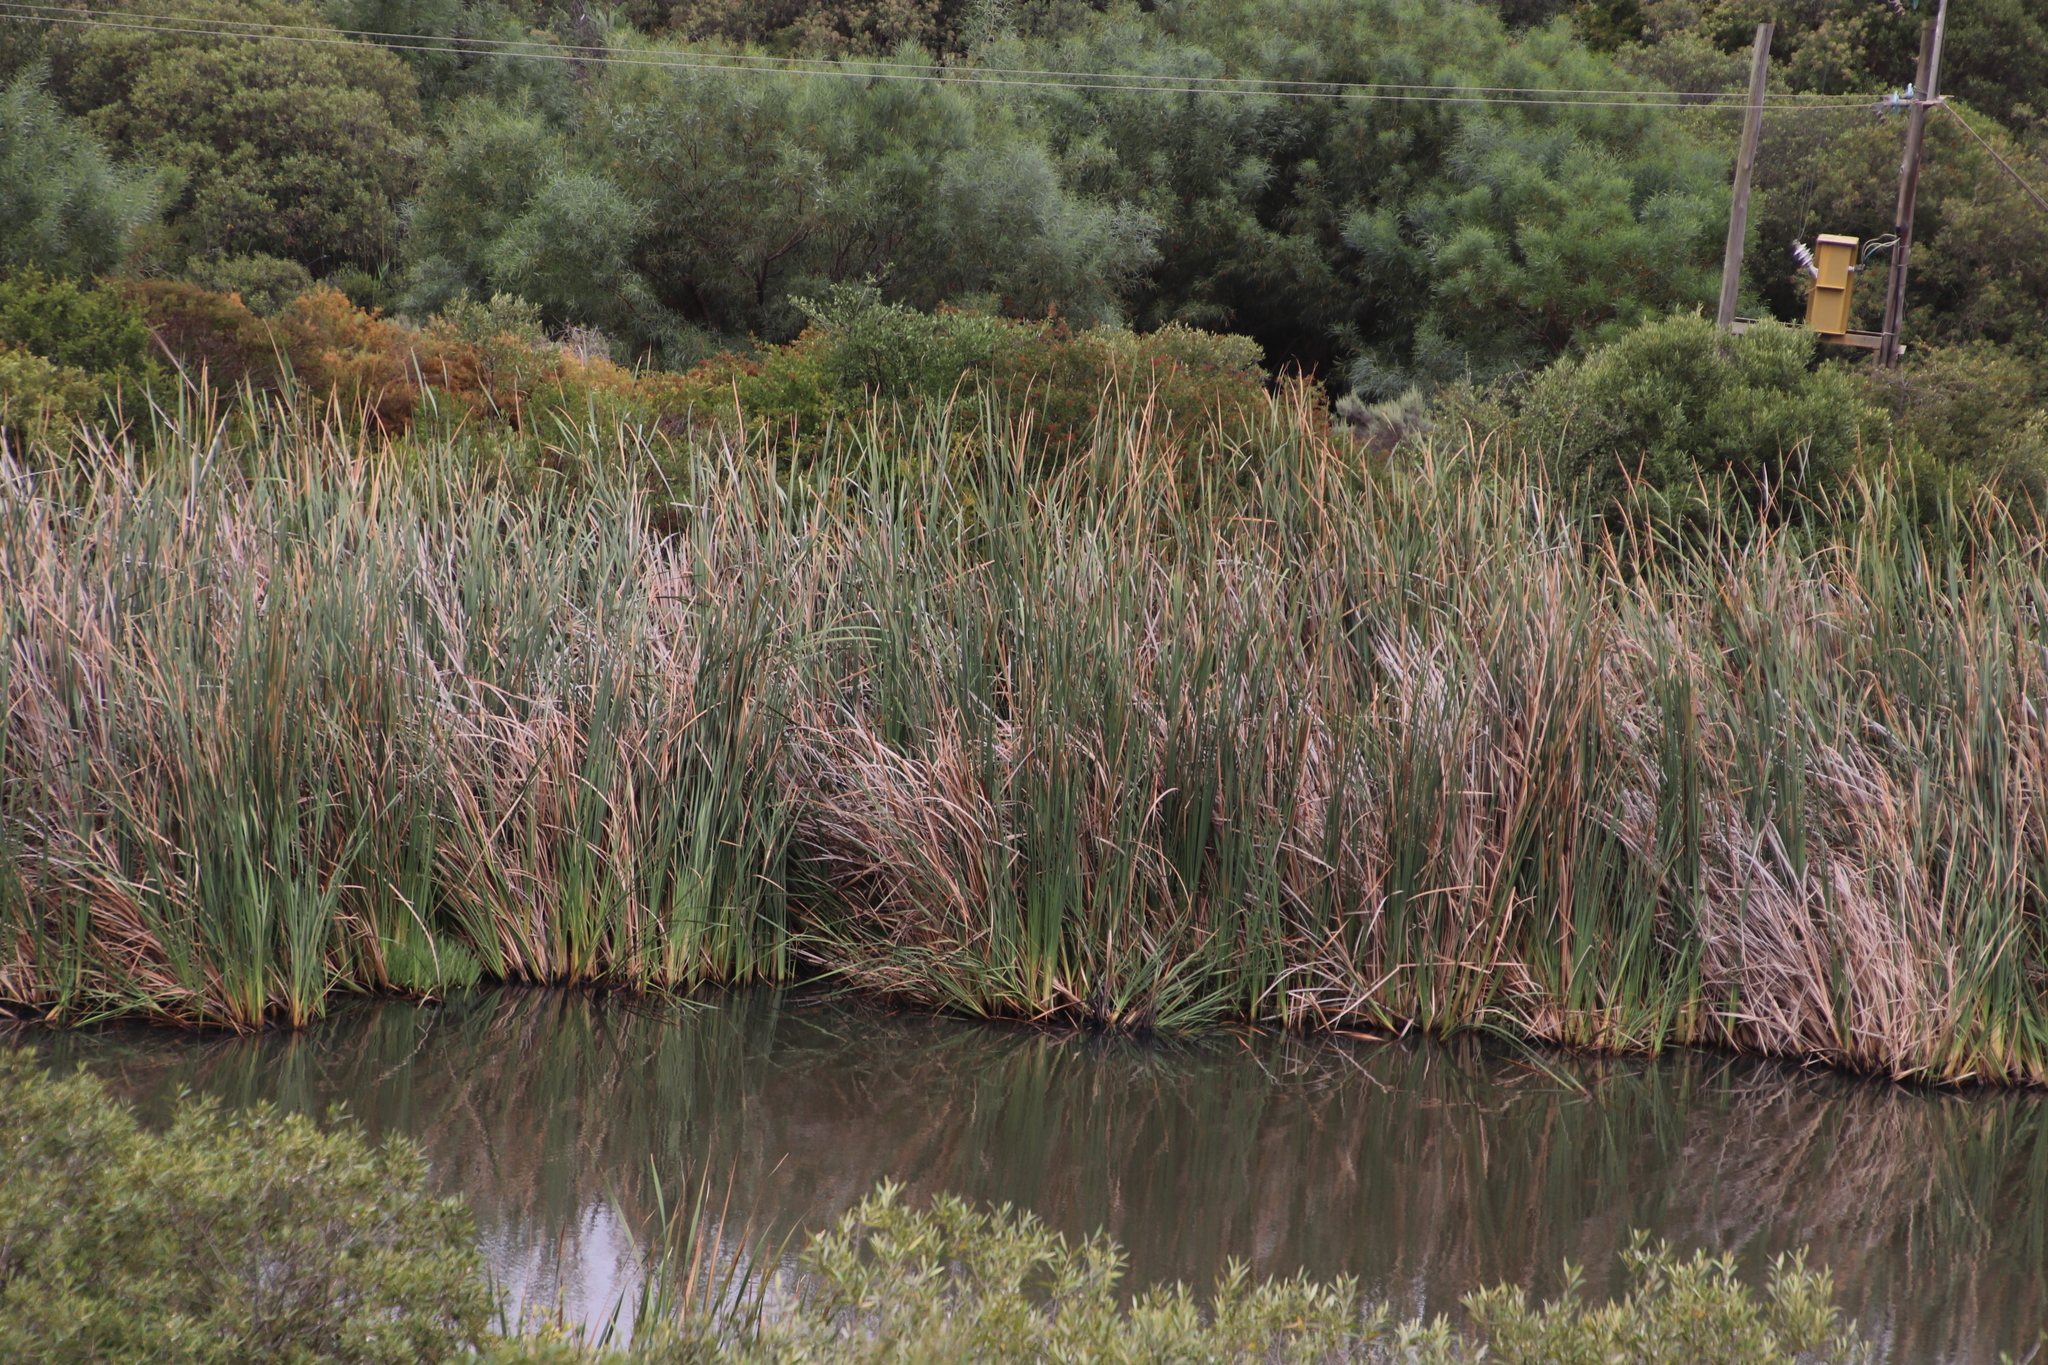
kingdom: Plantae
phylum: Tracheophyta
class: Liliopsida
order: Poales
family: Typhaceae
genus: Typha
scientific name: Typha capensis
